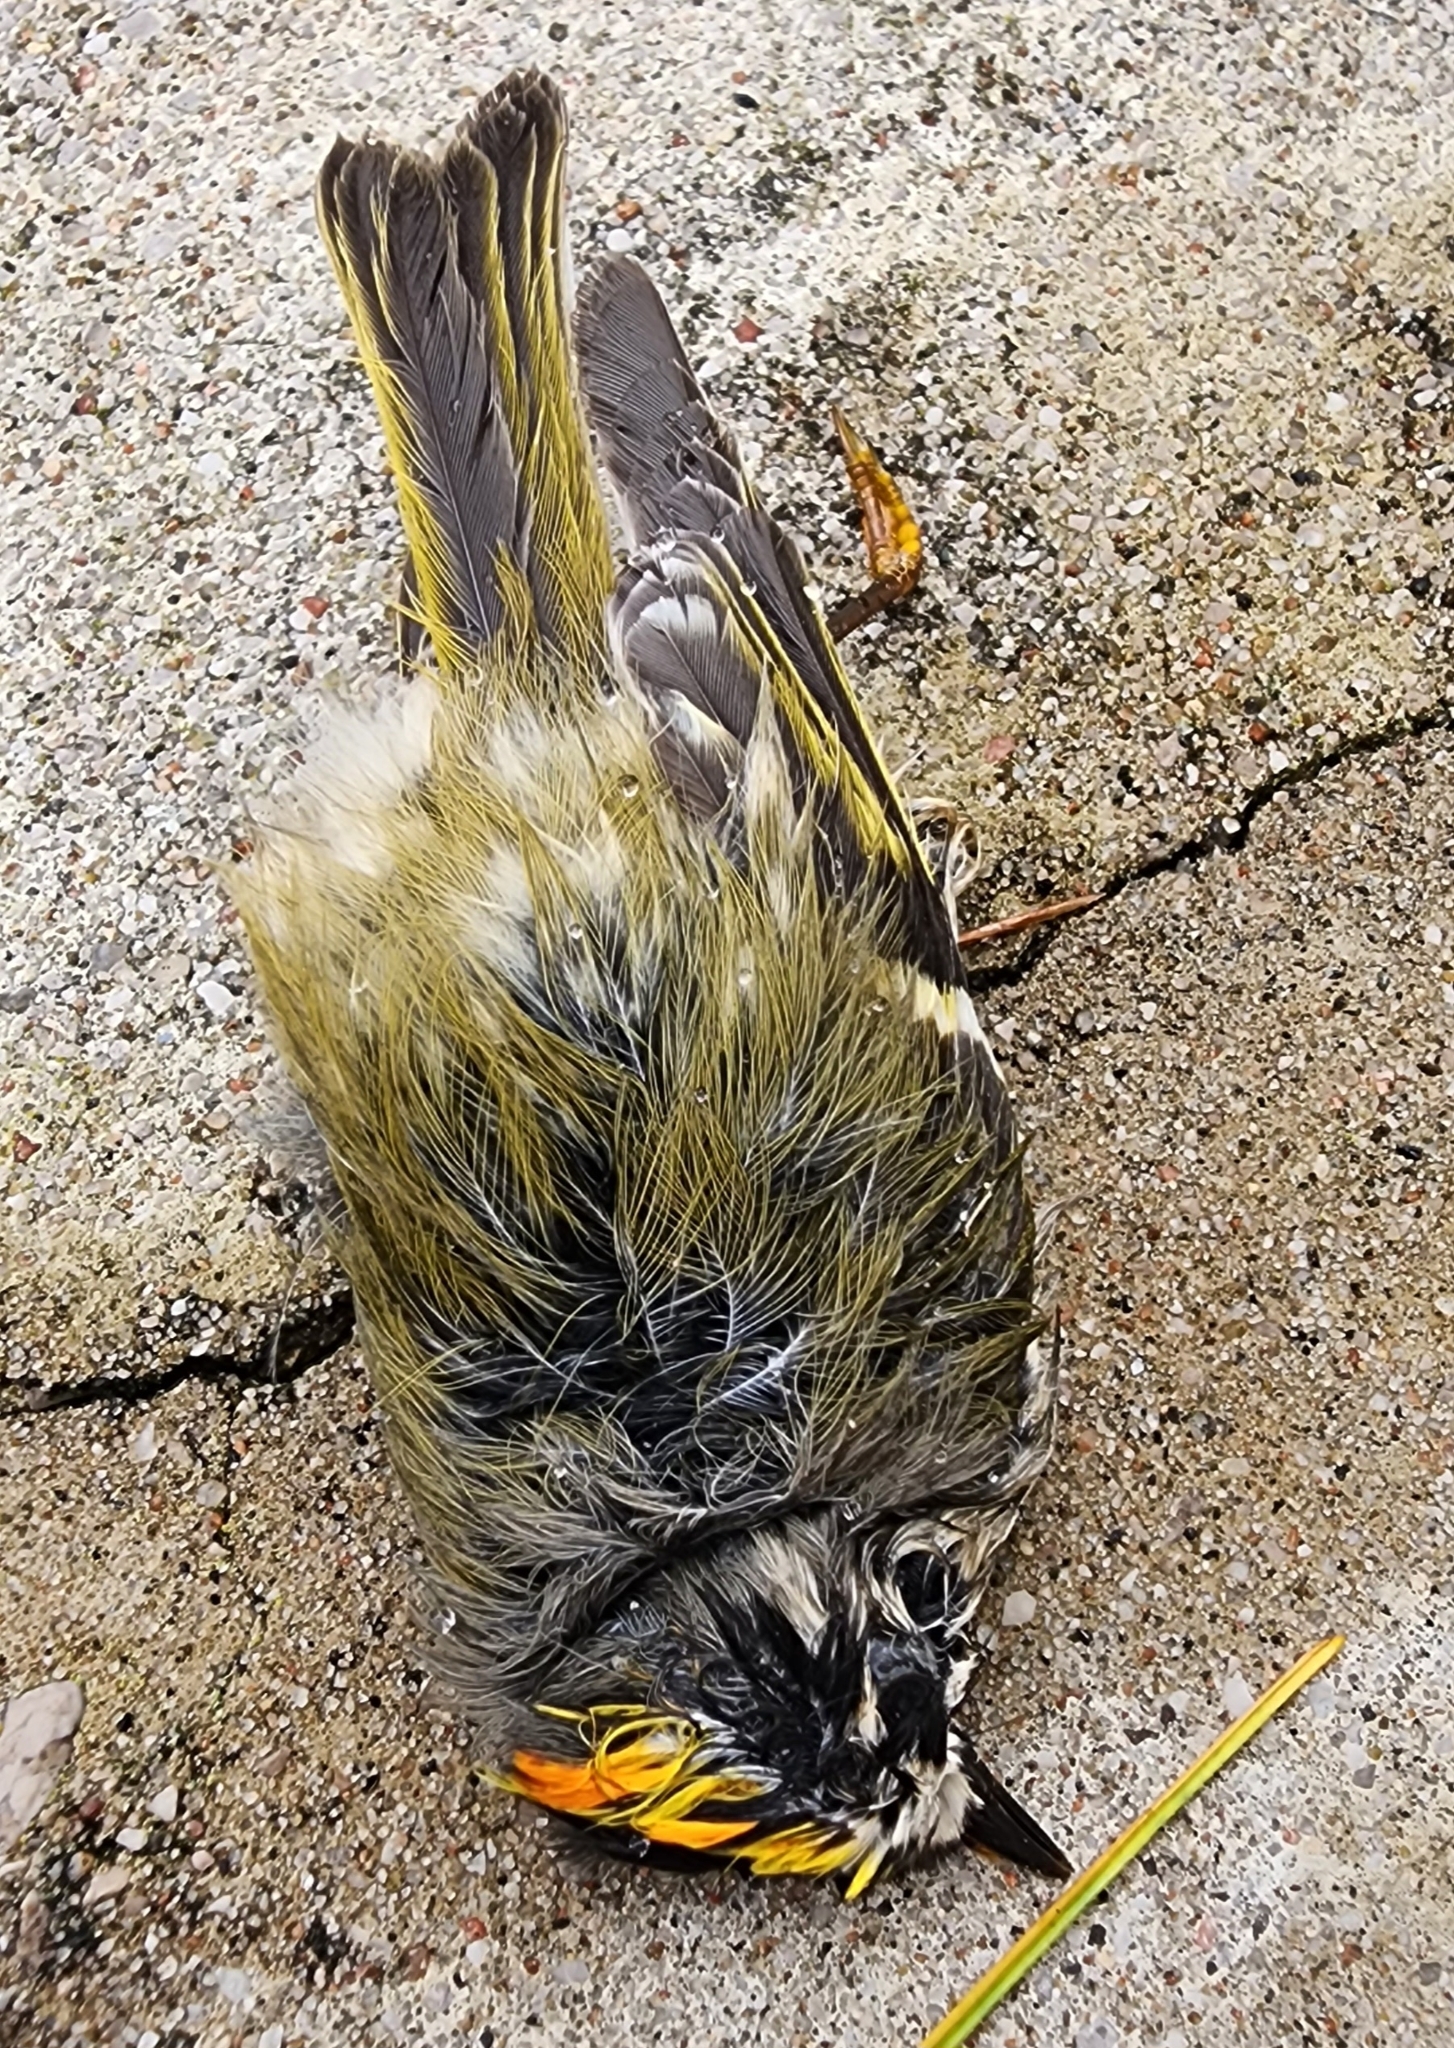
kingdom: Animalia
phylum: Chordata
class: Aves
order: Passeriformes
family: Regulidae
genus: Regulus
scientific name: Regulus satrapa
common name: Golden-crowned kinglet
